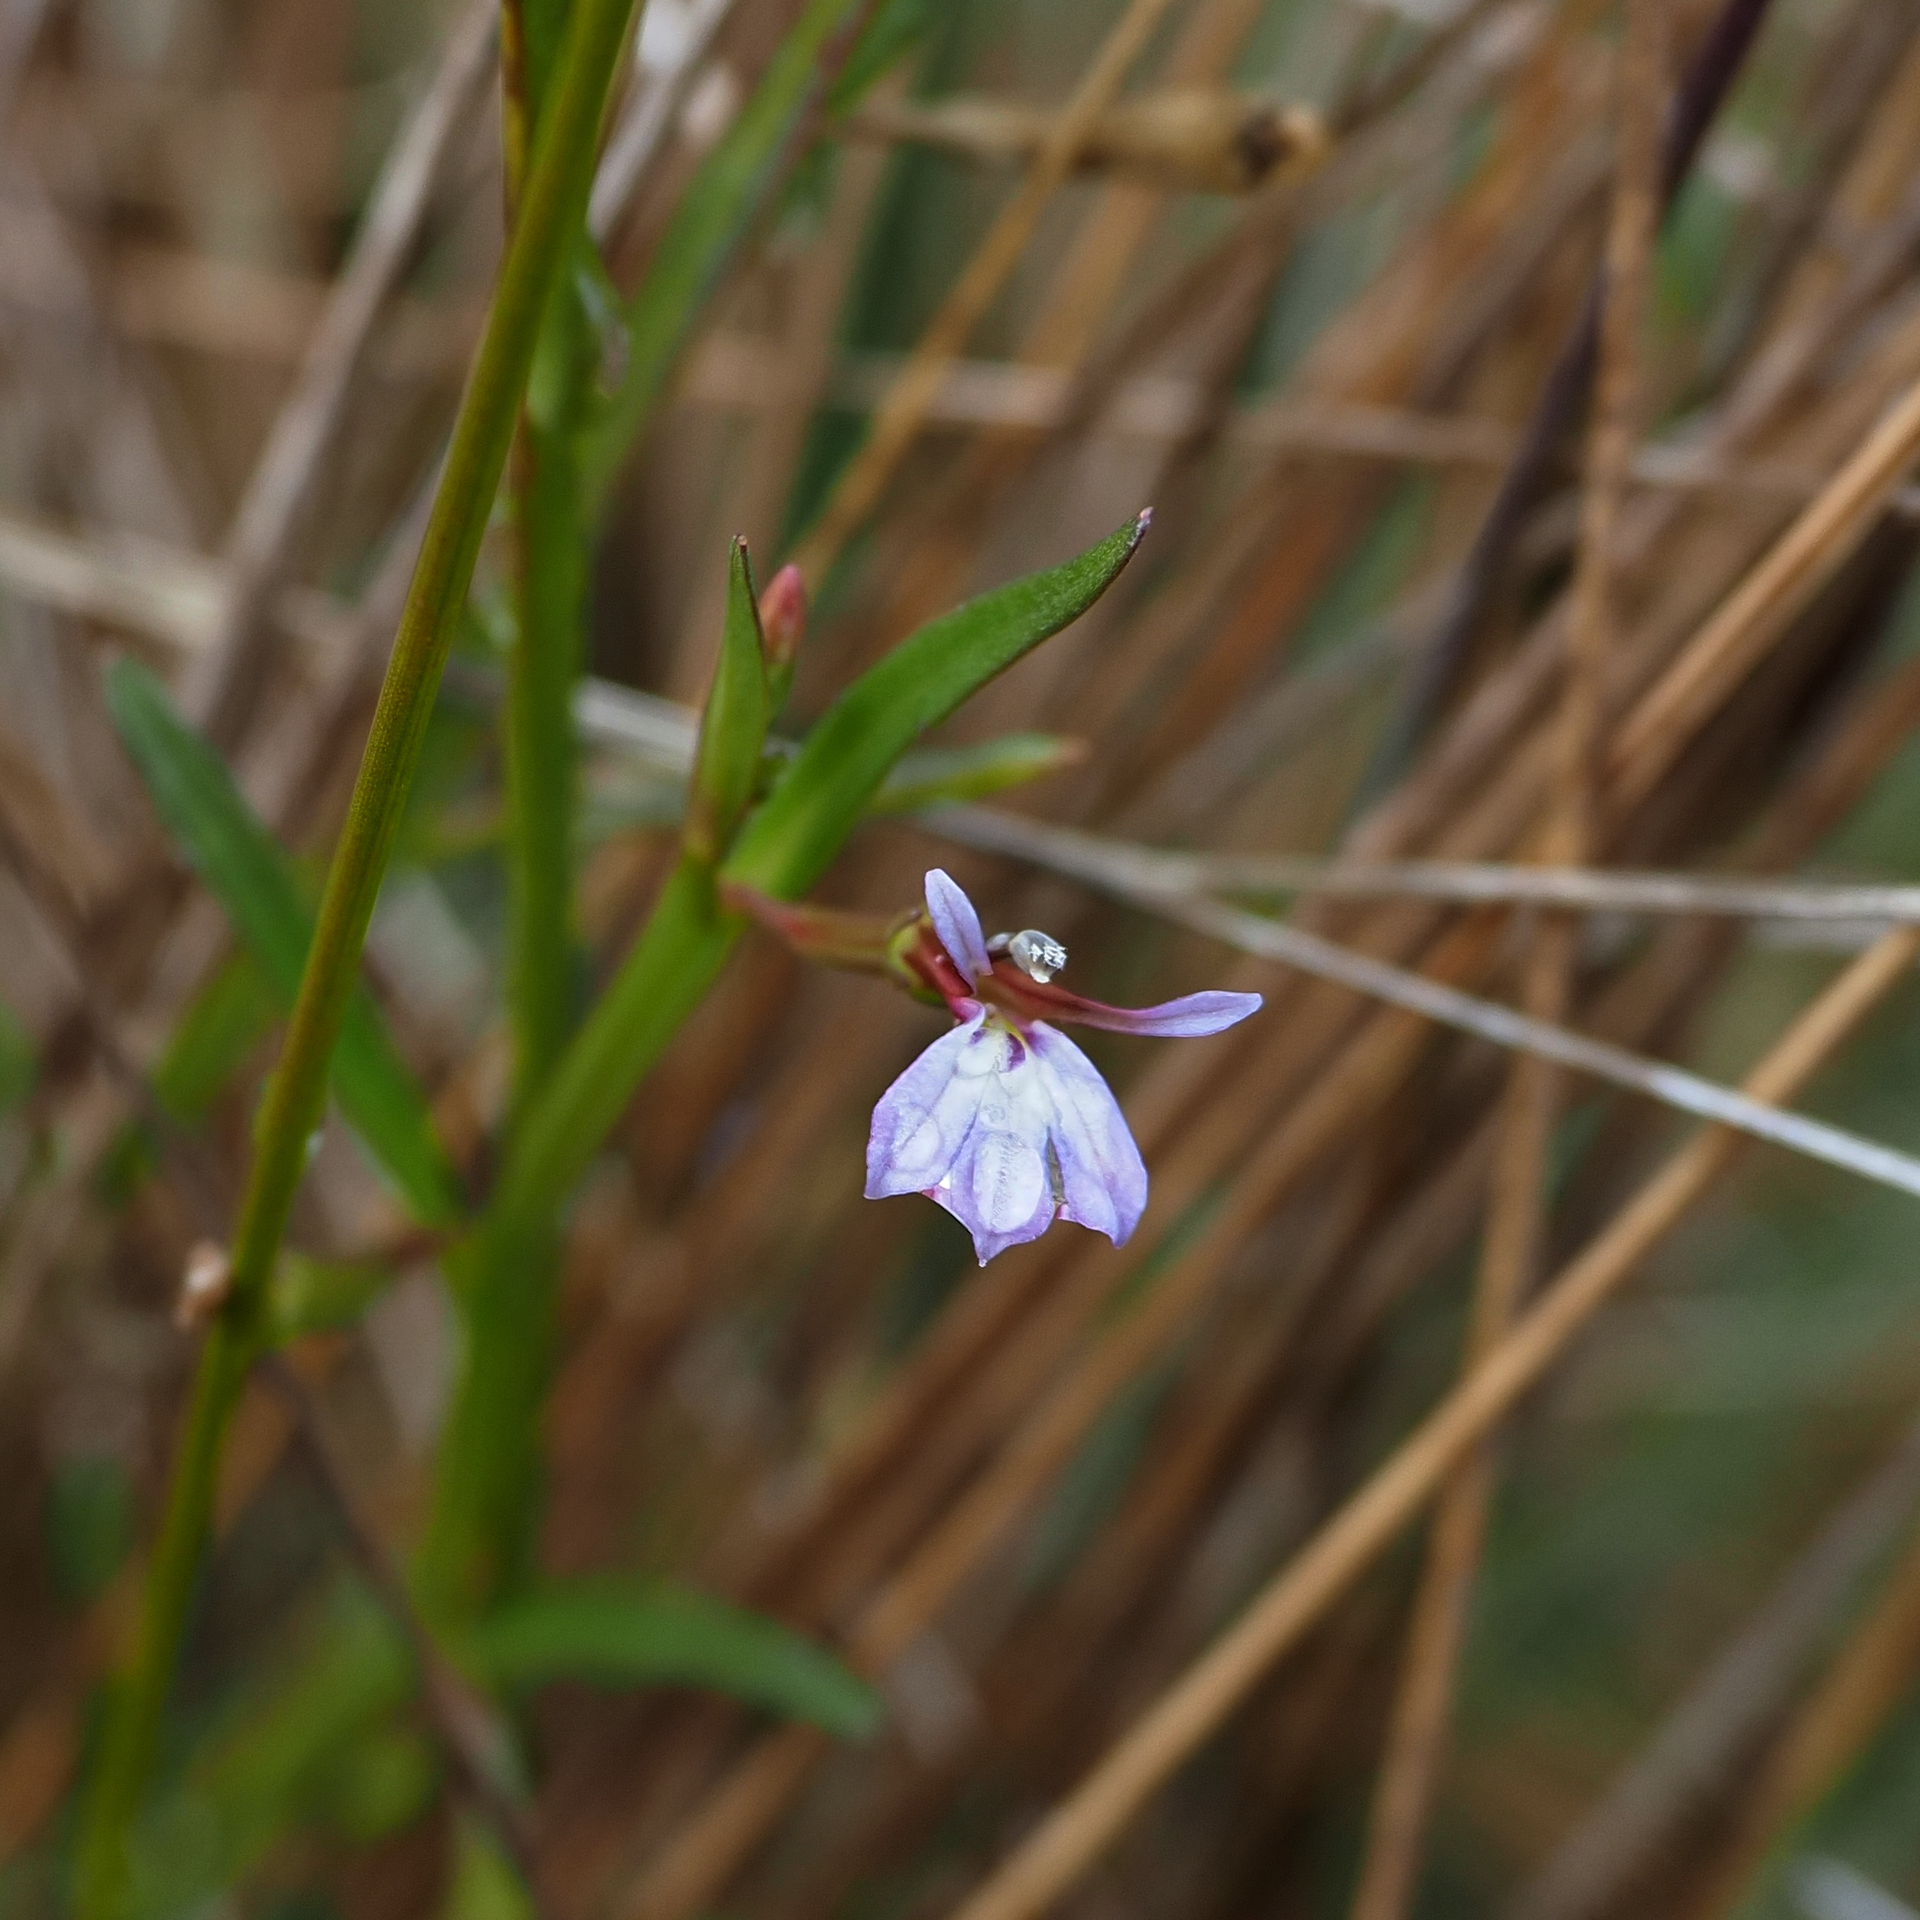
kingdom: Plantae
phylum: Tracheophyta
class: Magnoliopsida
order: Asterales
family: Campanulaceae
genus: Lobelia
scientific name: Lobelia anceps
